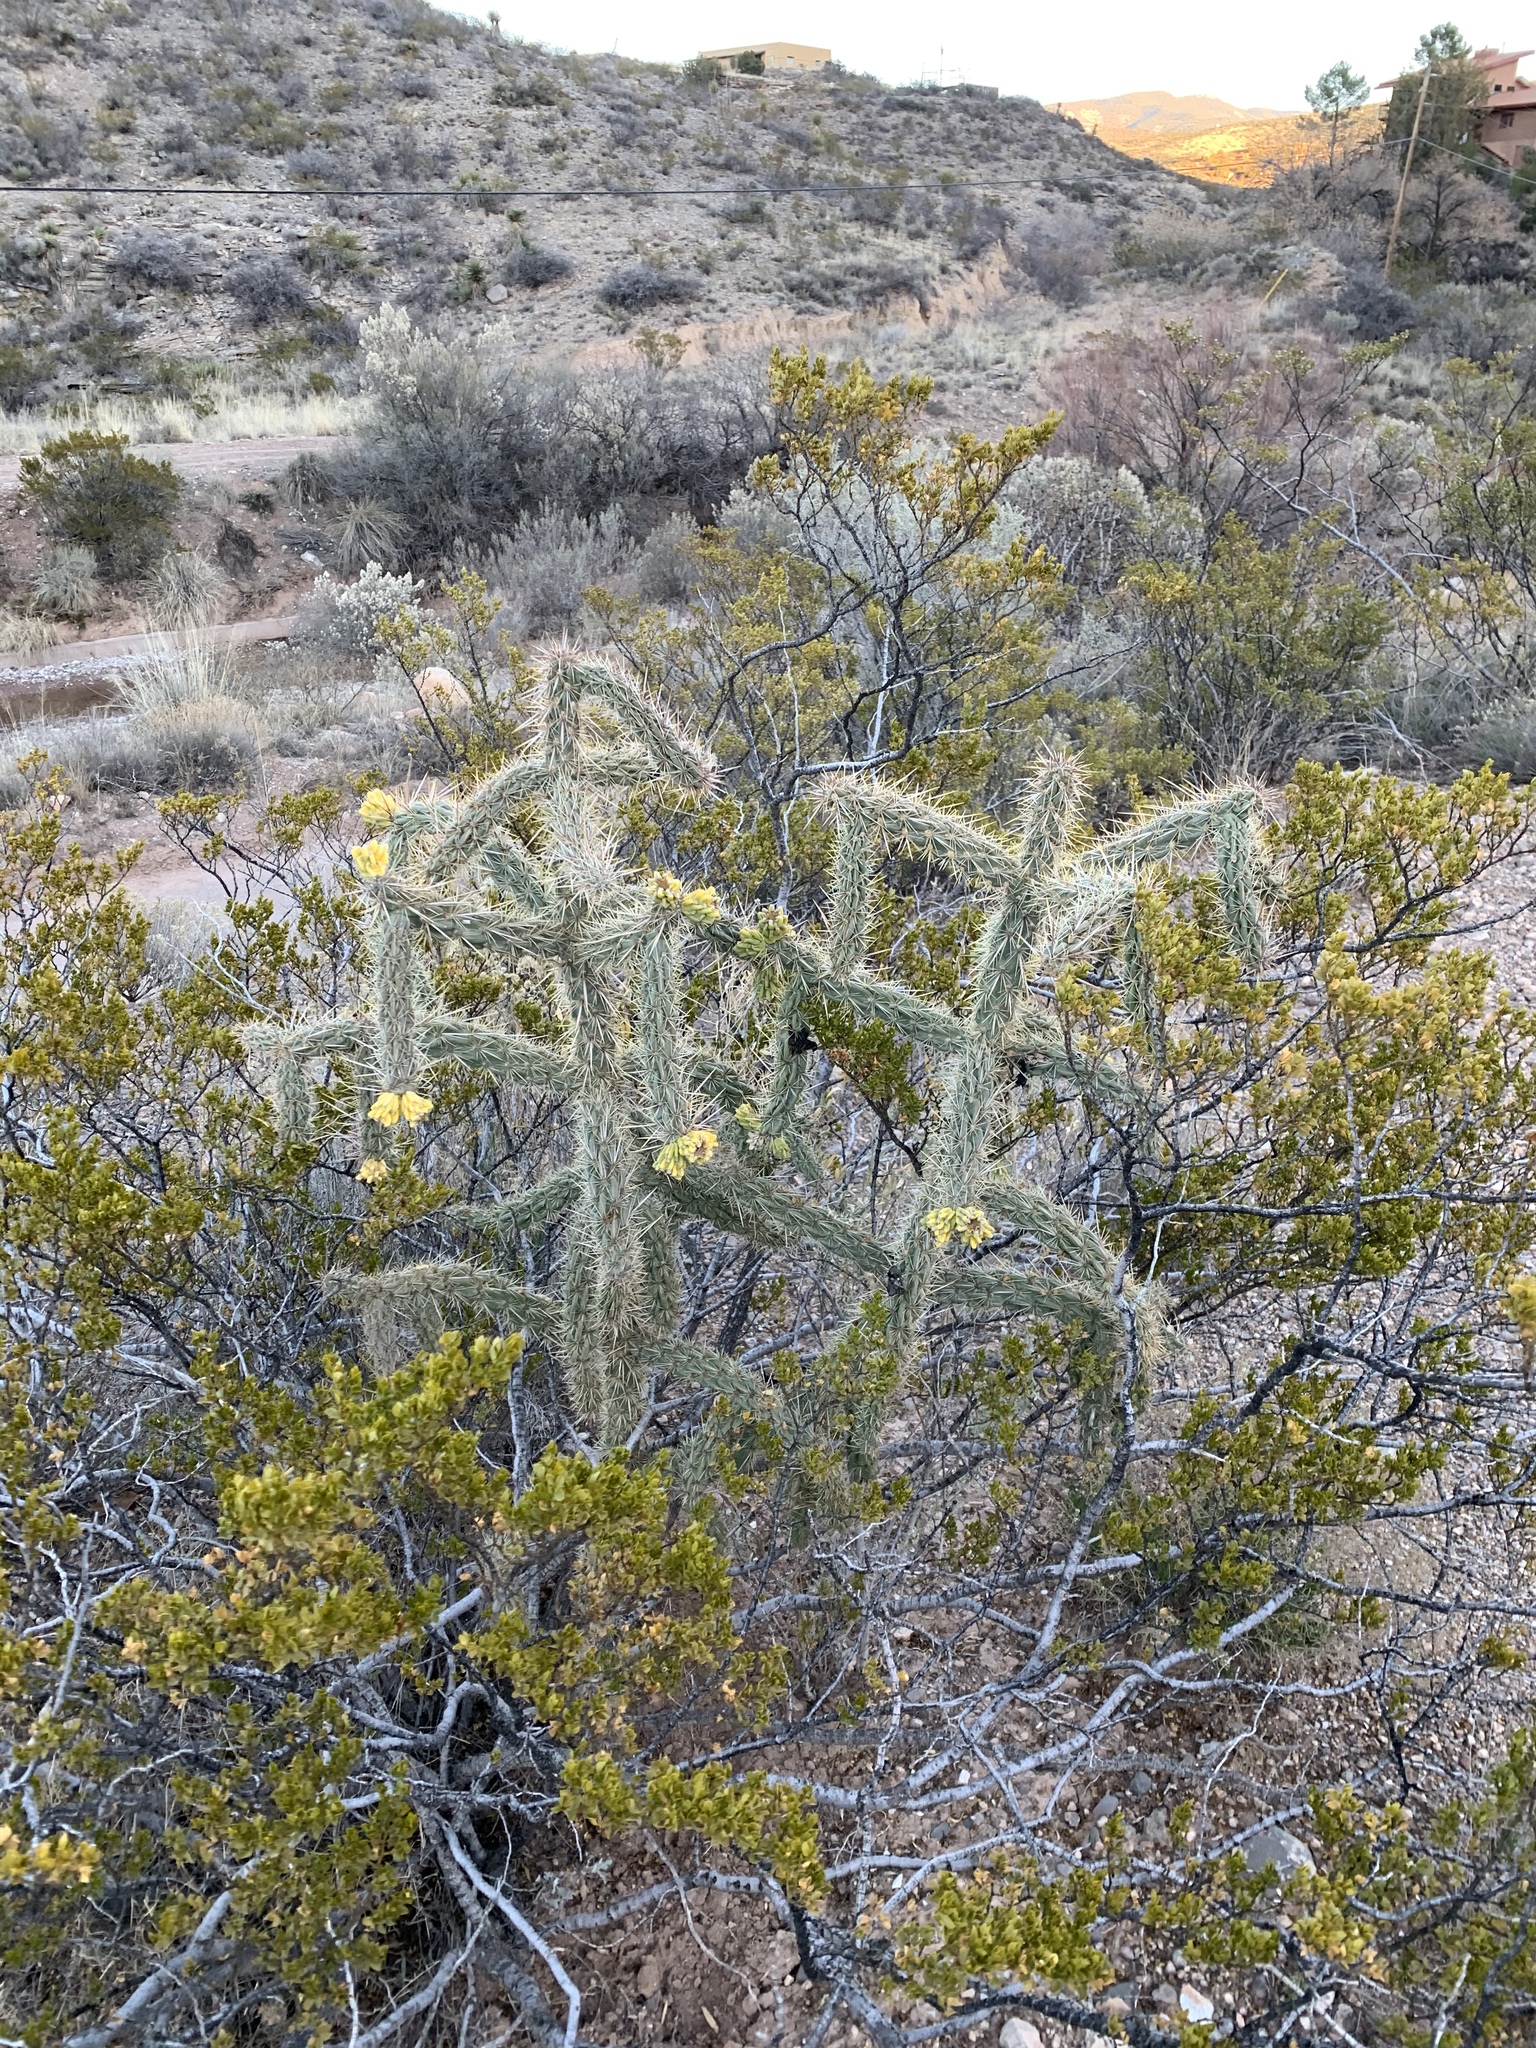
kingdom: Plantae
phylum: Tracheophyta
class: Magnoliopsida
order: Caryophyllales
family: Cactaceae
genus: Cylindropuntia
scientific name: Cylindropuntia imbricata
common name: Candelabrum cactus
